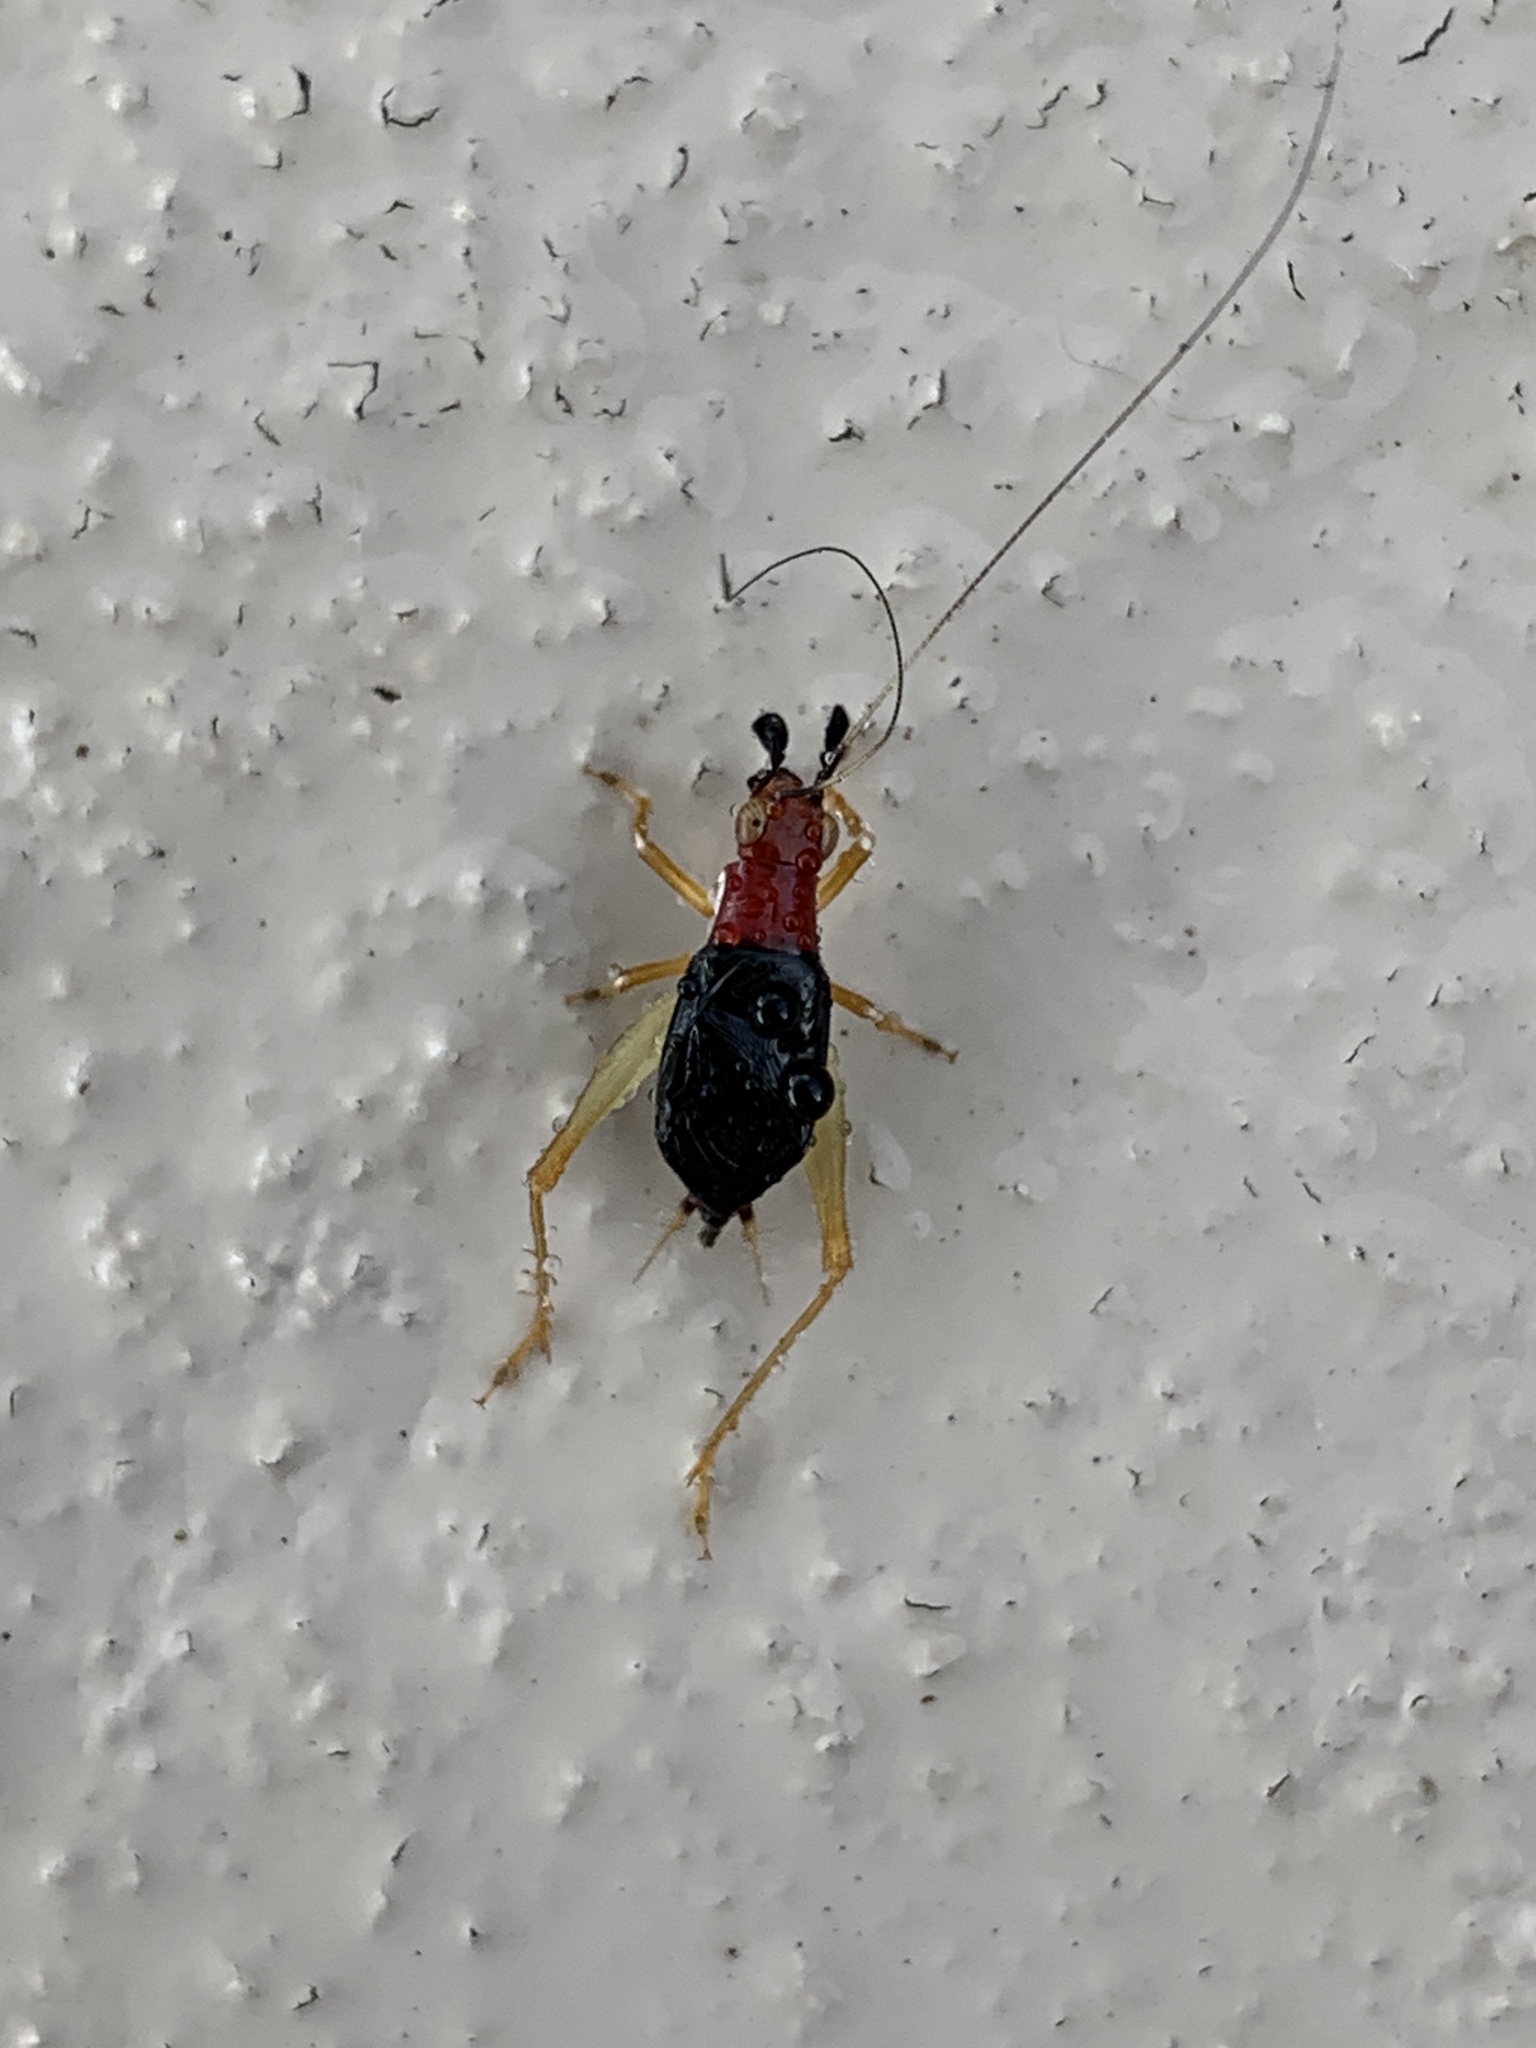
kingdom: Animalia
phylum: Arthropoda
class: Insecta
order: Orthoptera
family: Trigonidiidae
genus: Phyllopalpus
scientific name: Phyllopalpus pulchellus
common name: Handsome trig
